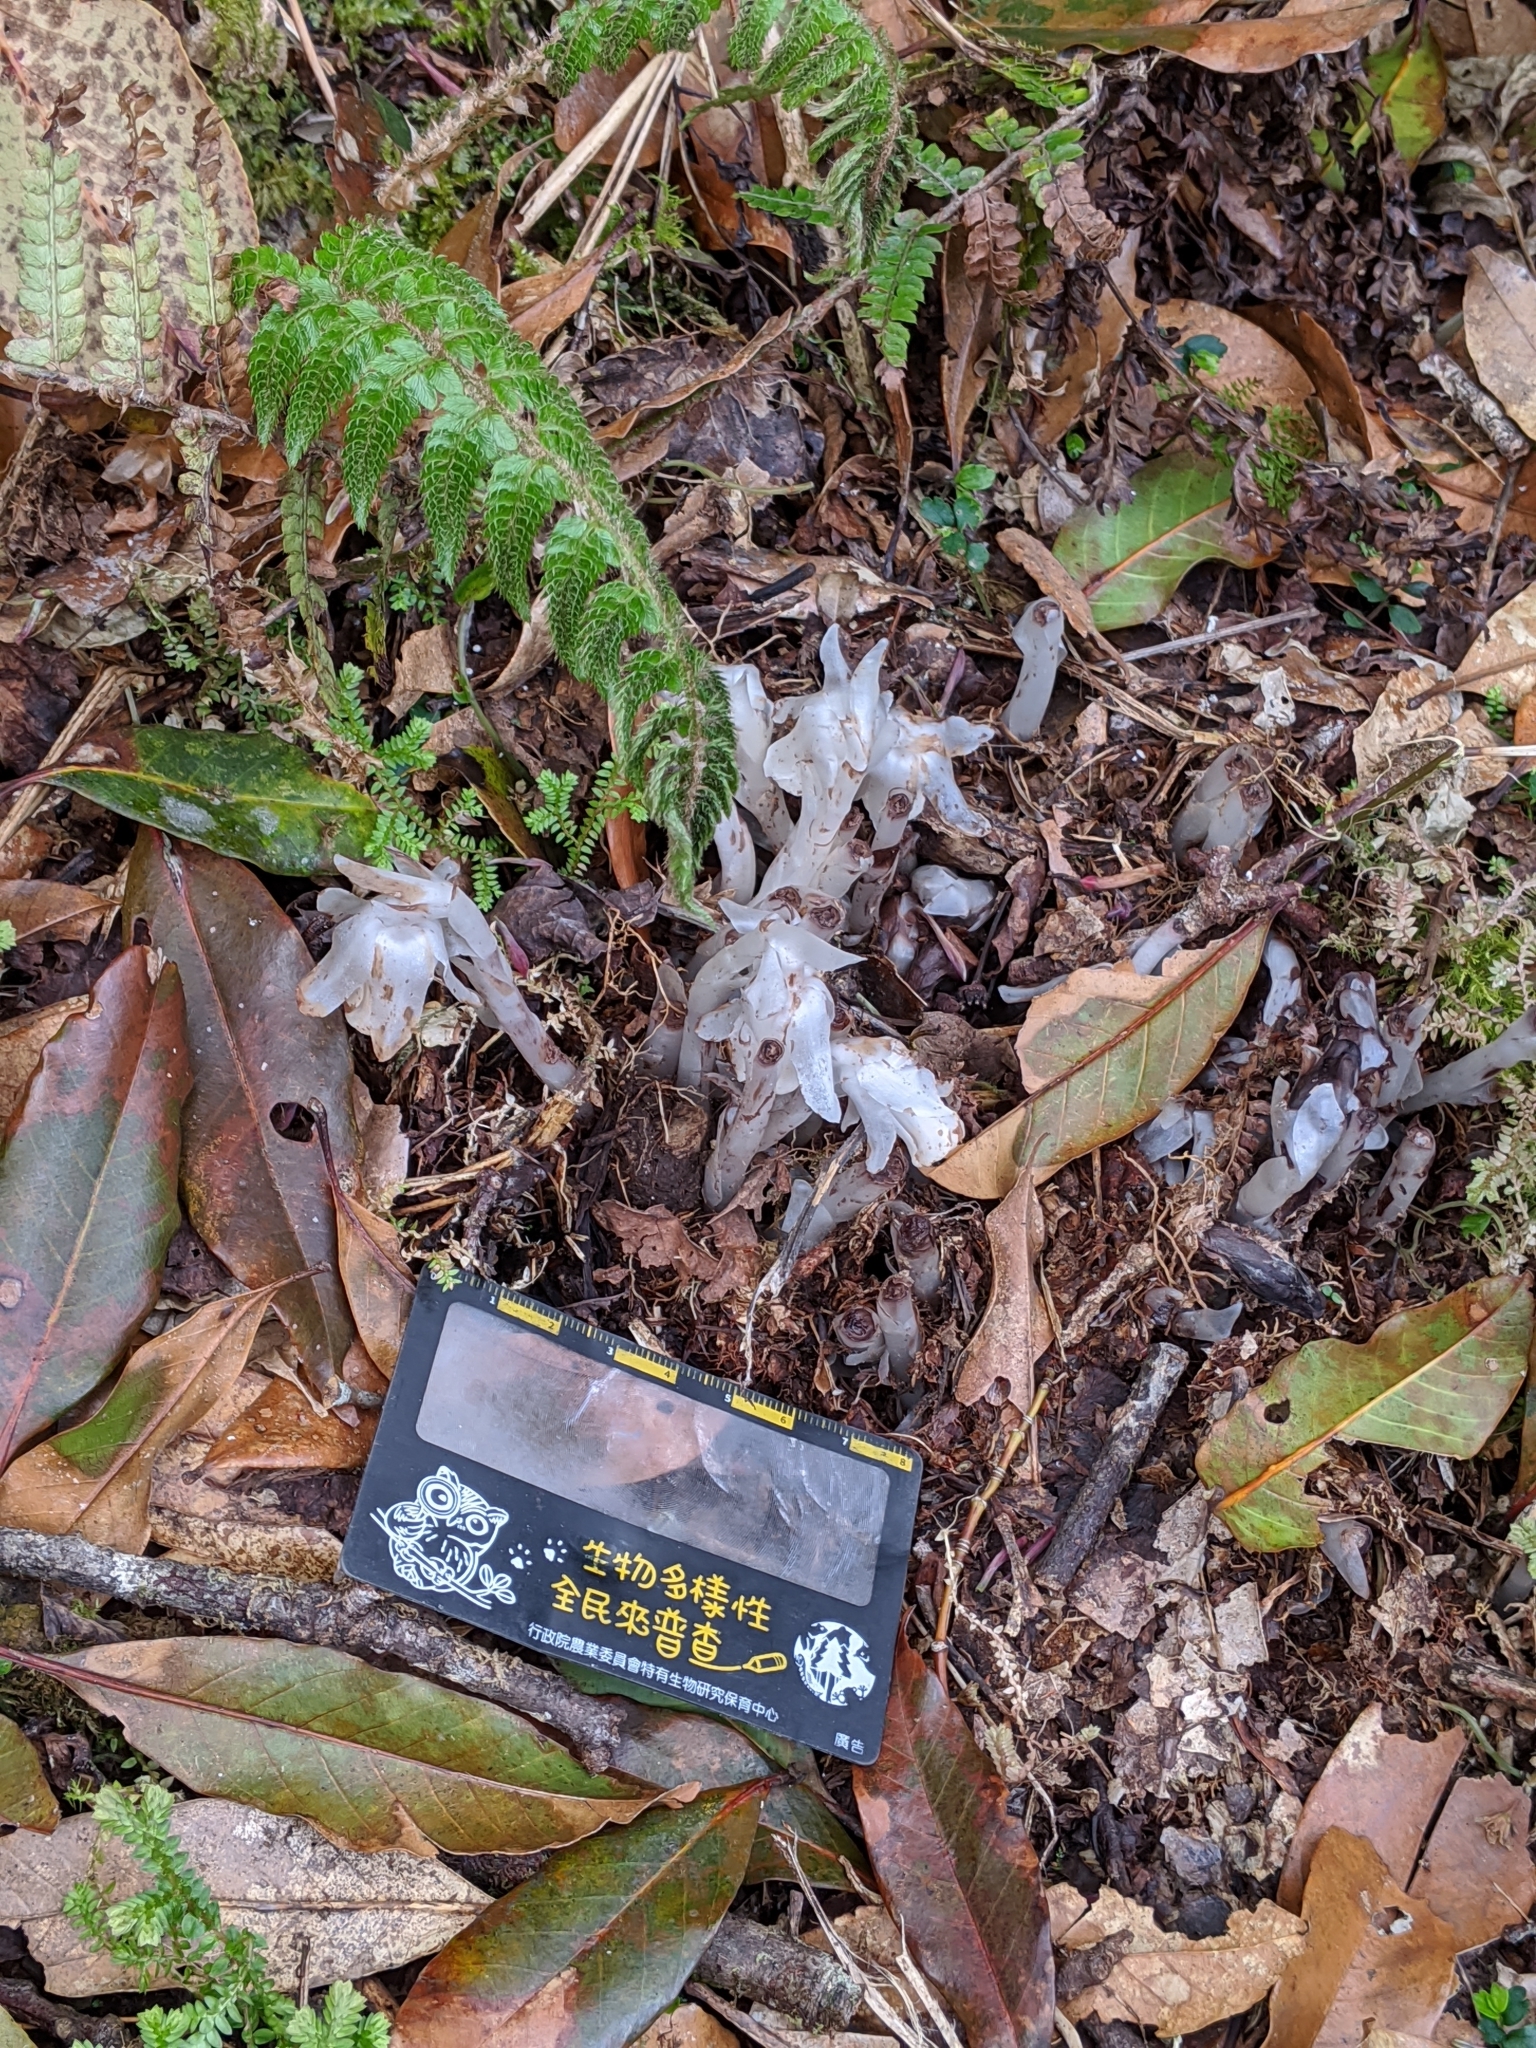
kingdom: Plantae
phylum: Tracheophyta
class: Magnoliopsida
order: Ericales
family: Ericaceae
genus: Monotropastrum
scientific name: Monotropastrum humile
